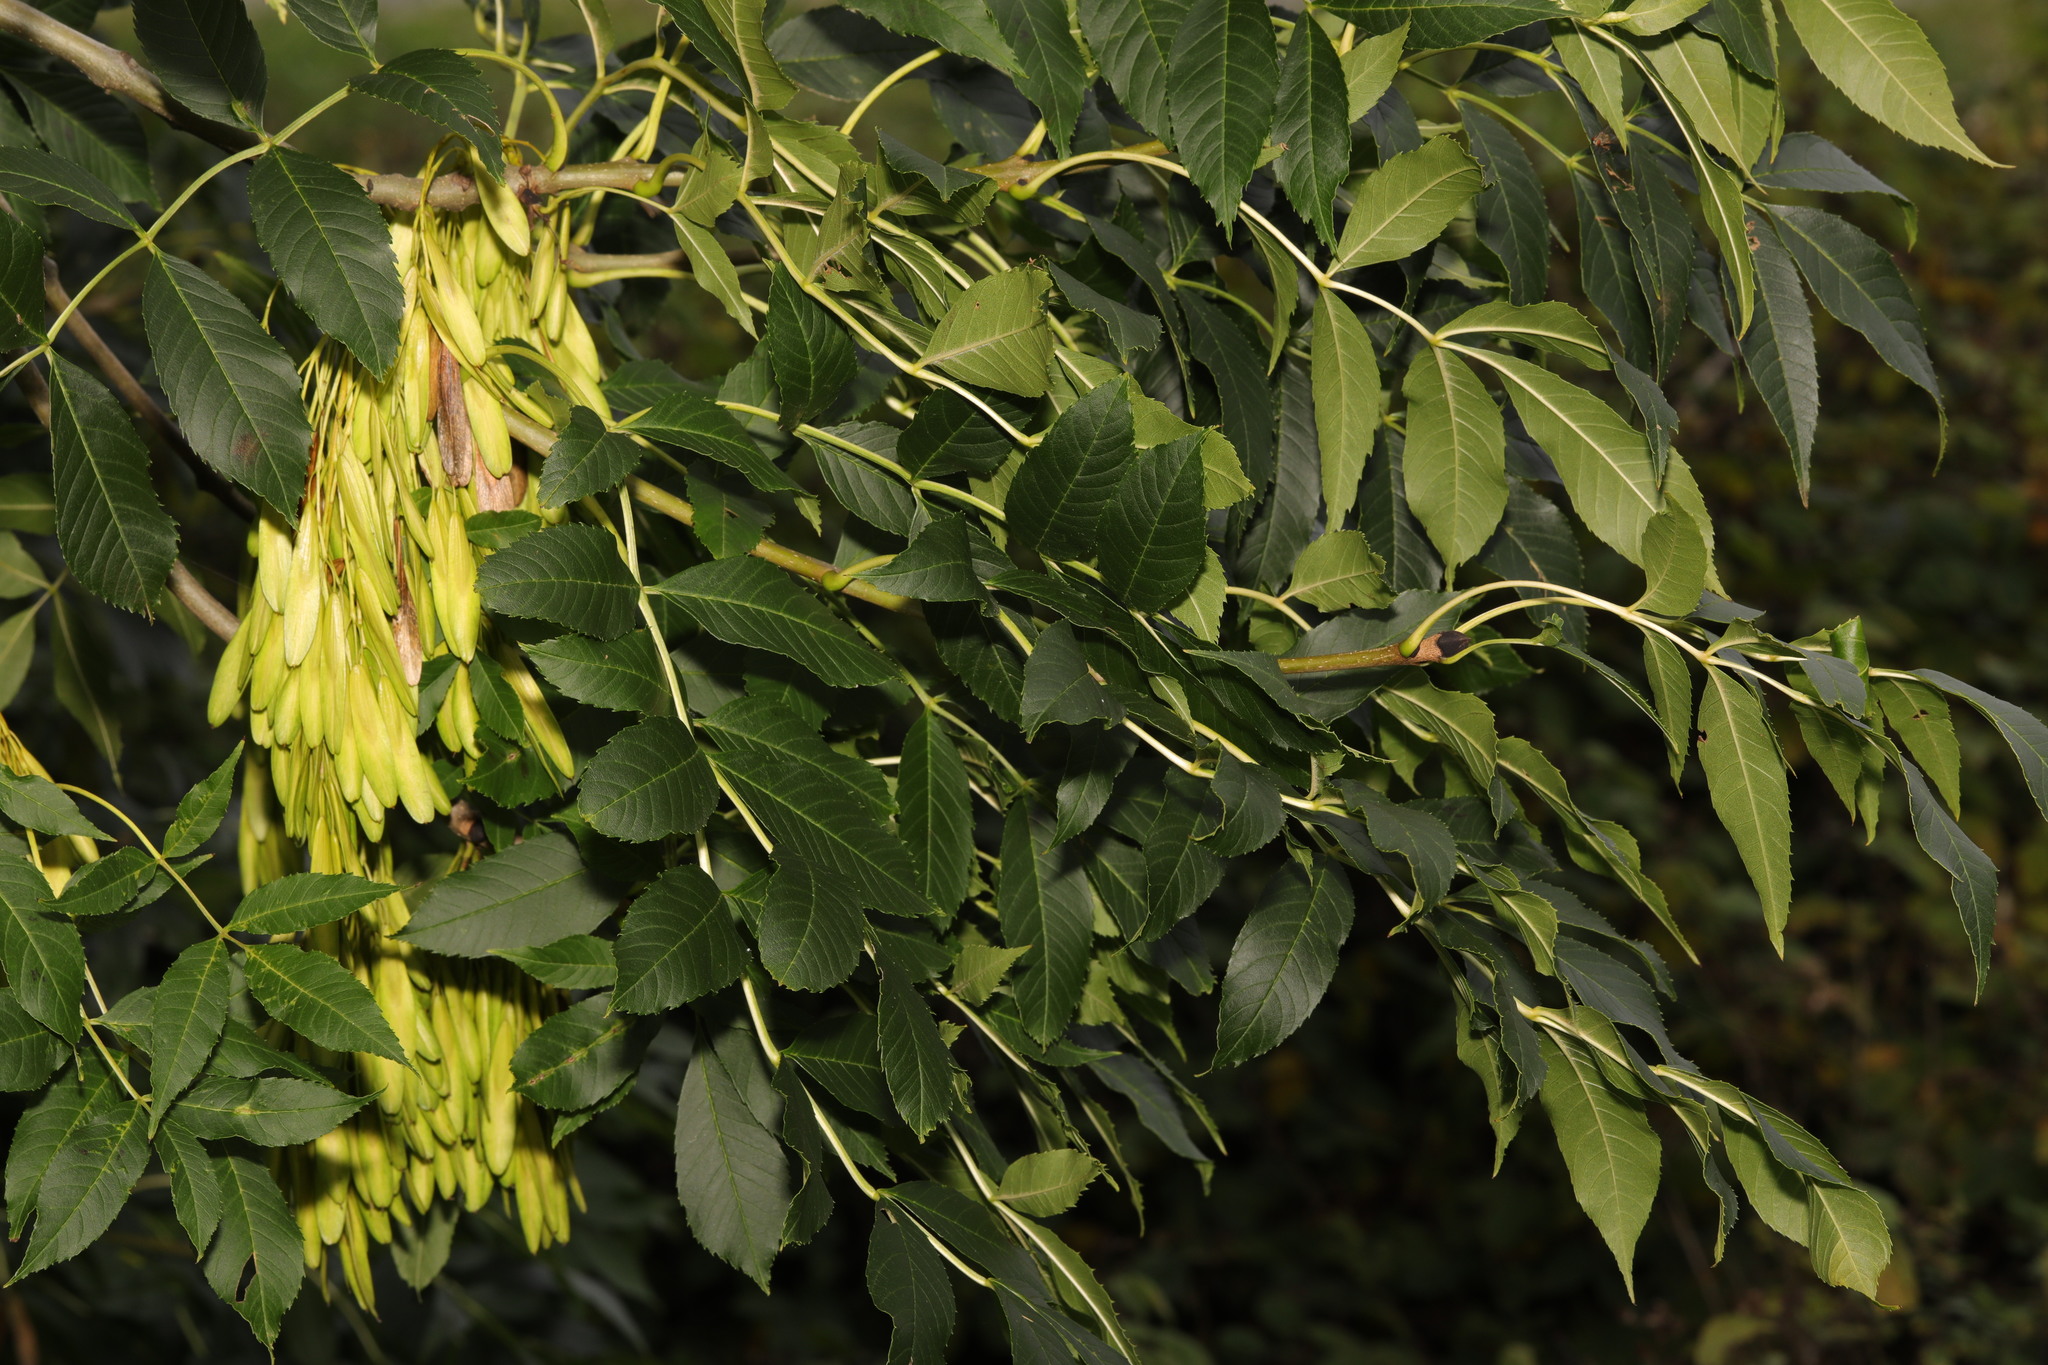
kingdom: Plantae
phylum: Tracheophyta
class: Magnoliopsida
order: Lamiales
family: Oleaceae
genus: Fraxinus
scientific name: Fraxinus excelsior
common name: European ash
